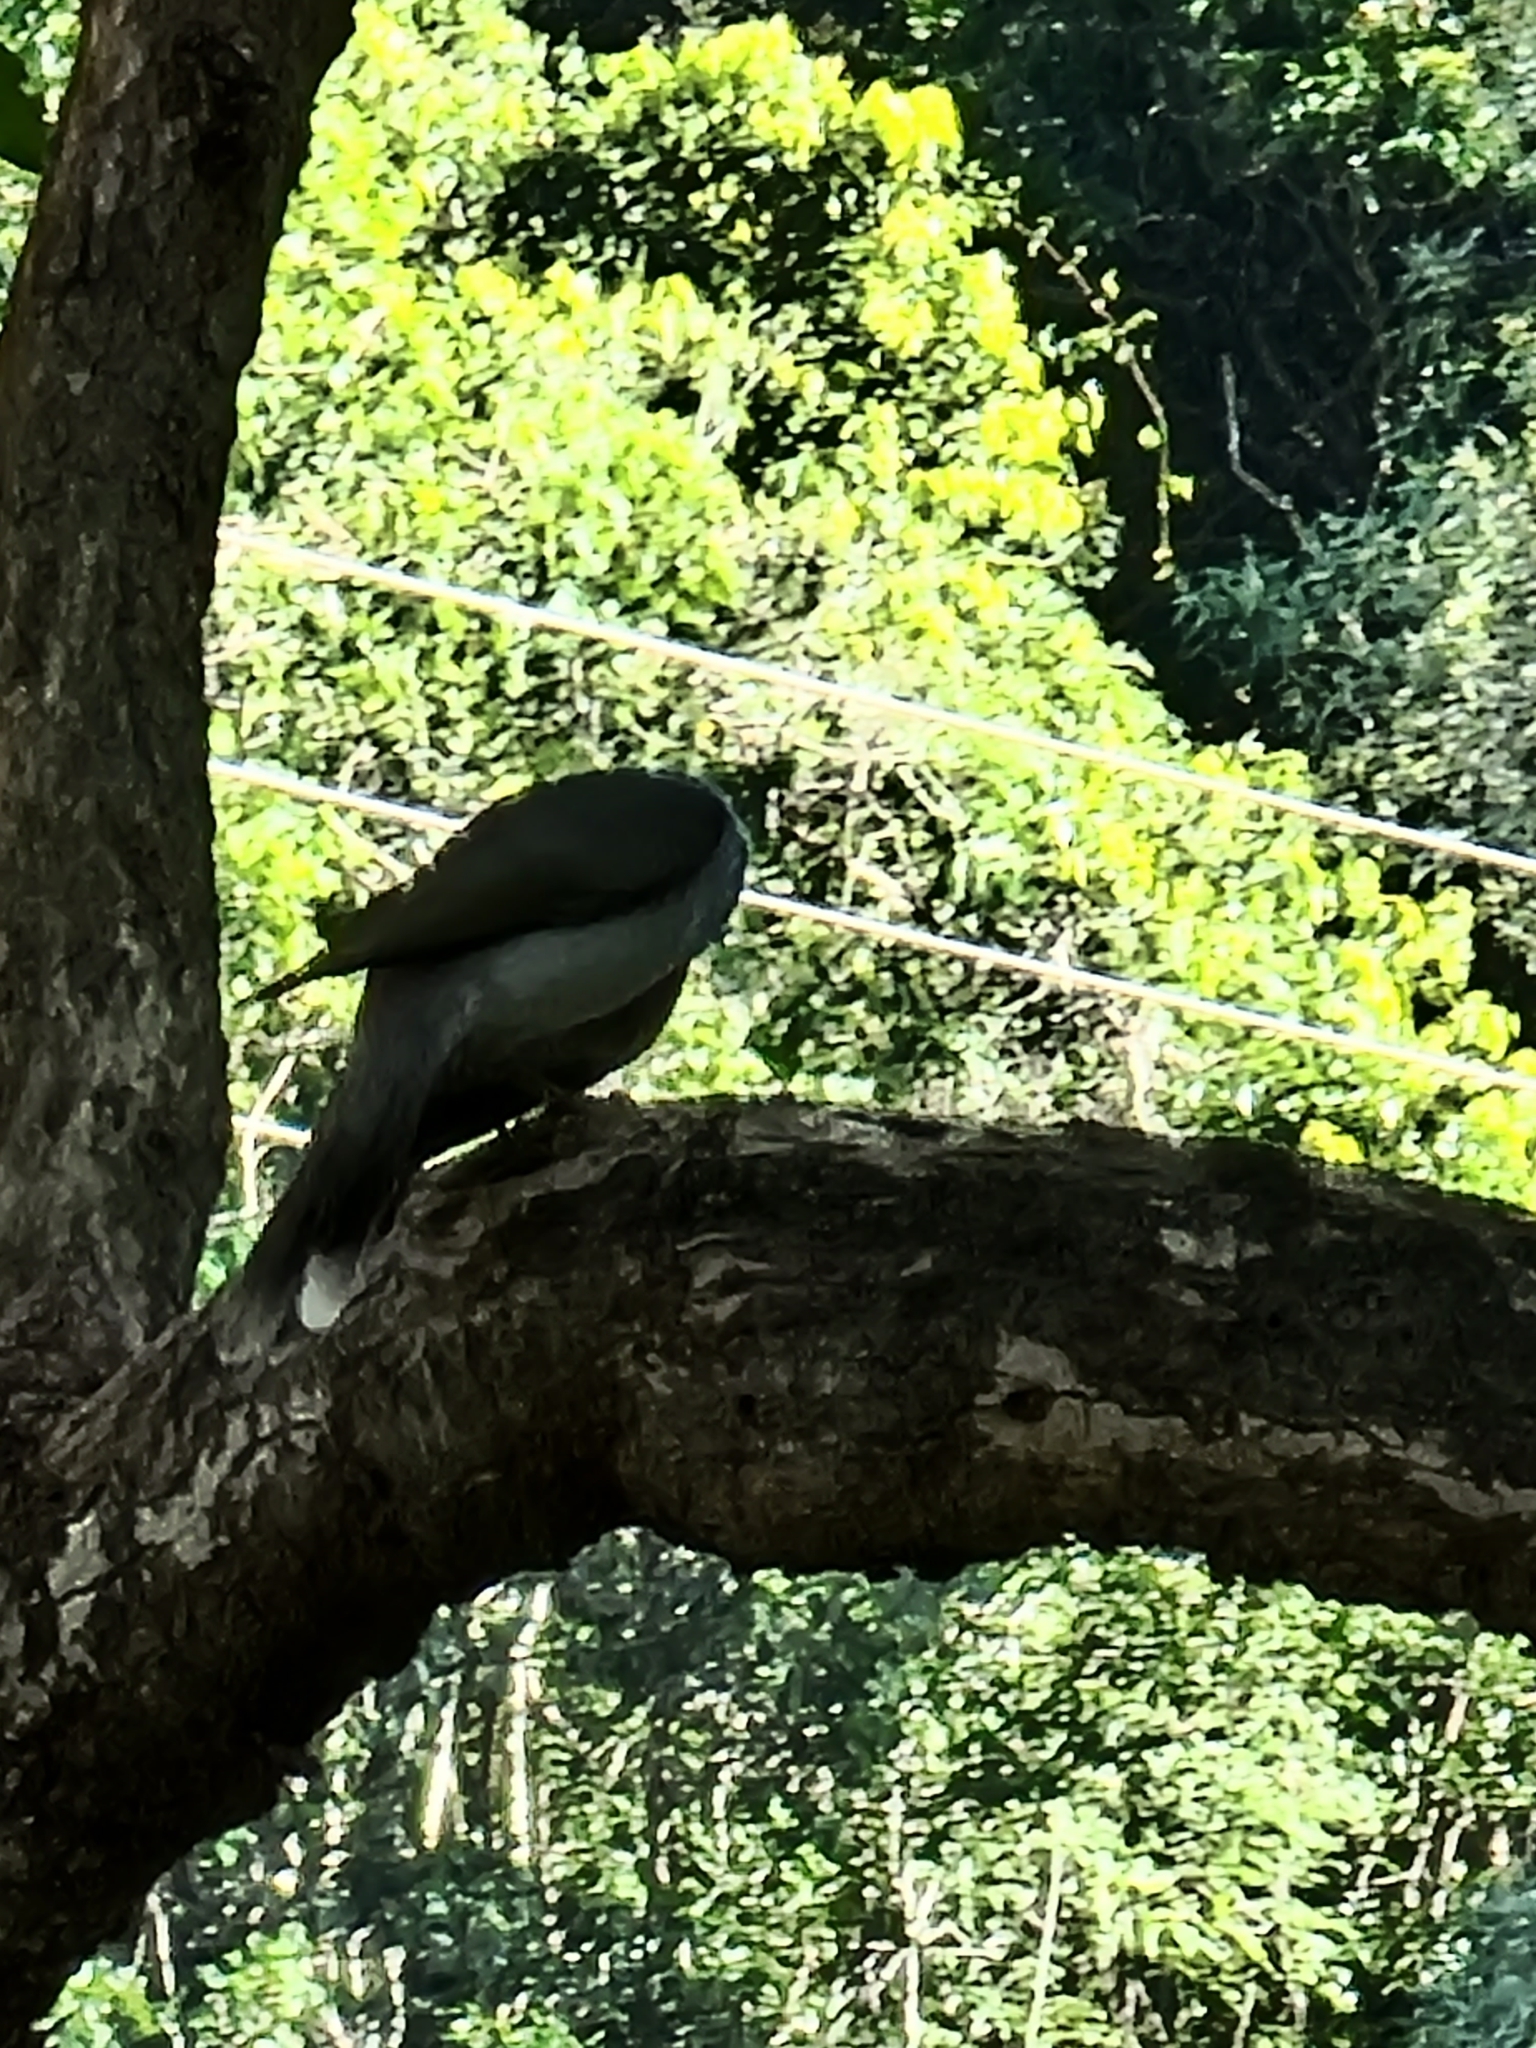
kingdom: Animalia
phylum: Chordata
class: Aves
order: Passeriformes
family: Meliphagidae
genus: Manorina
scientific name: Manorina melanocephala
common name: Noisy miner
